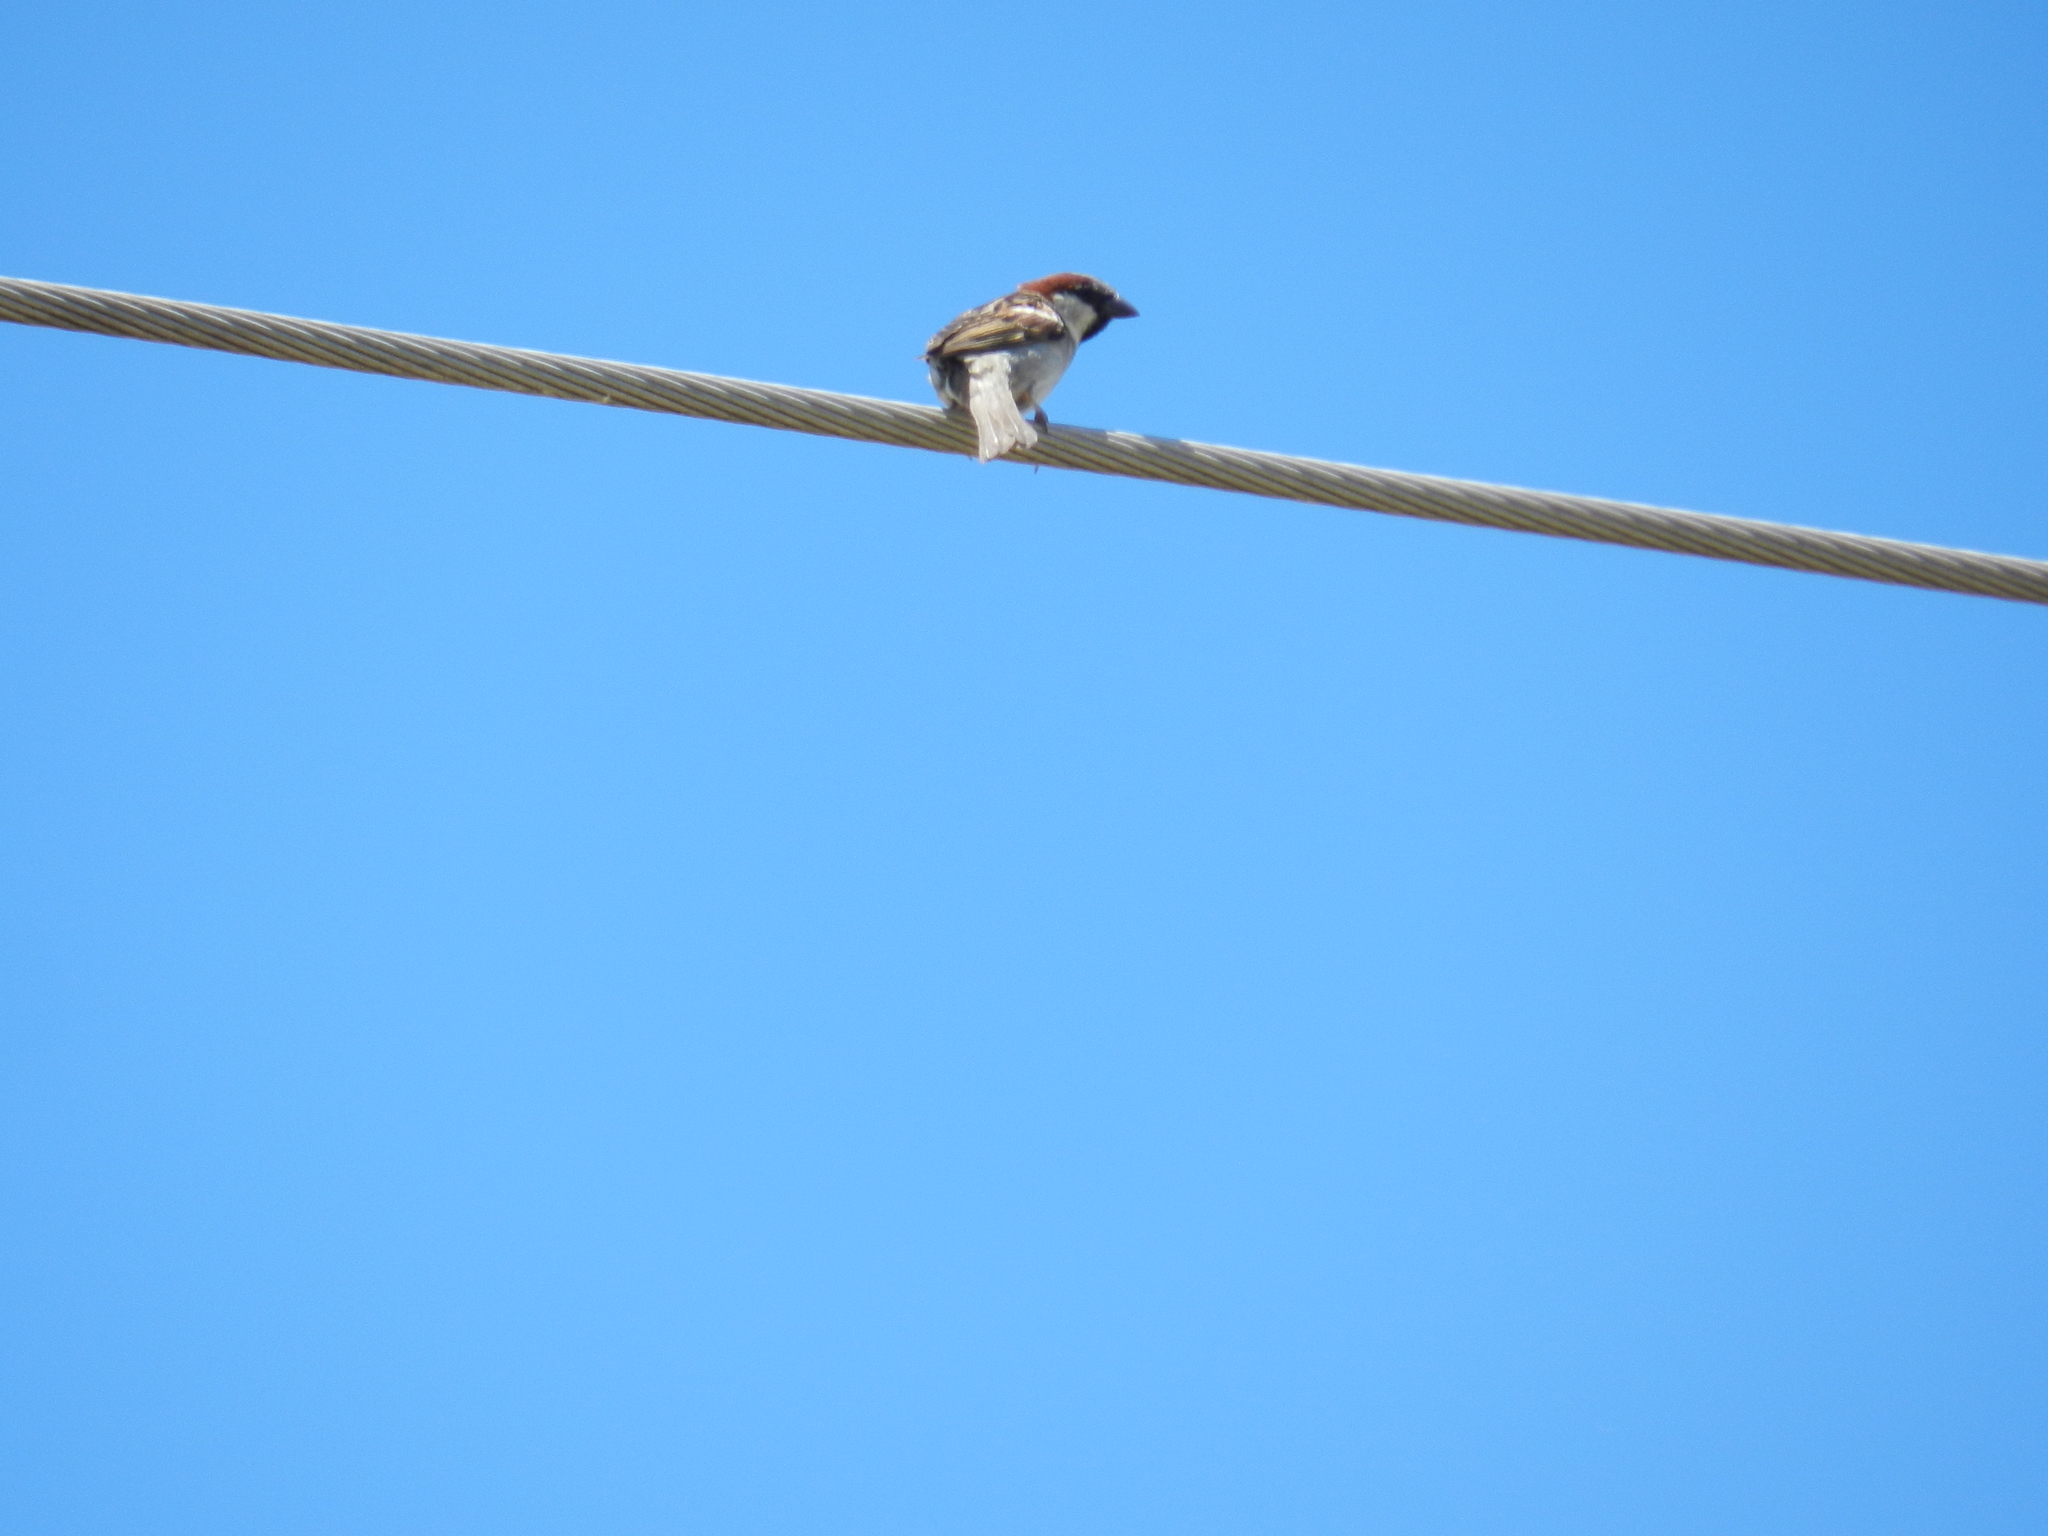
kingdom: Animalia
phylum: Chordata
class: Aves
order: Passeriformes
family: Passeridae
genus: Passer
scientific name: Passer domesticus
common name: House sparrow
